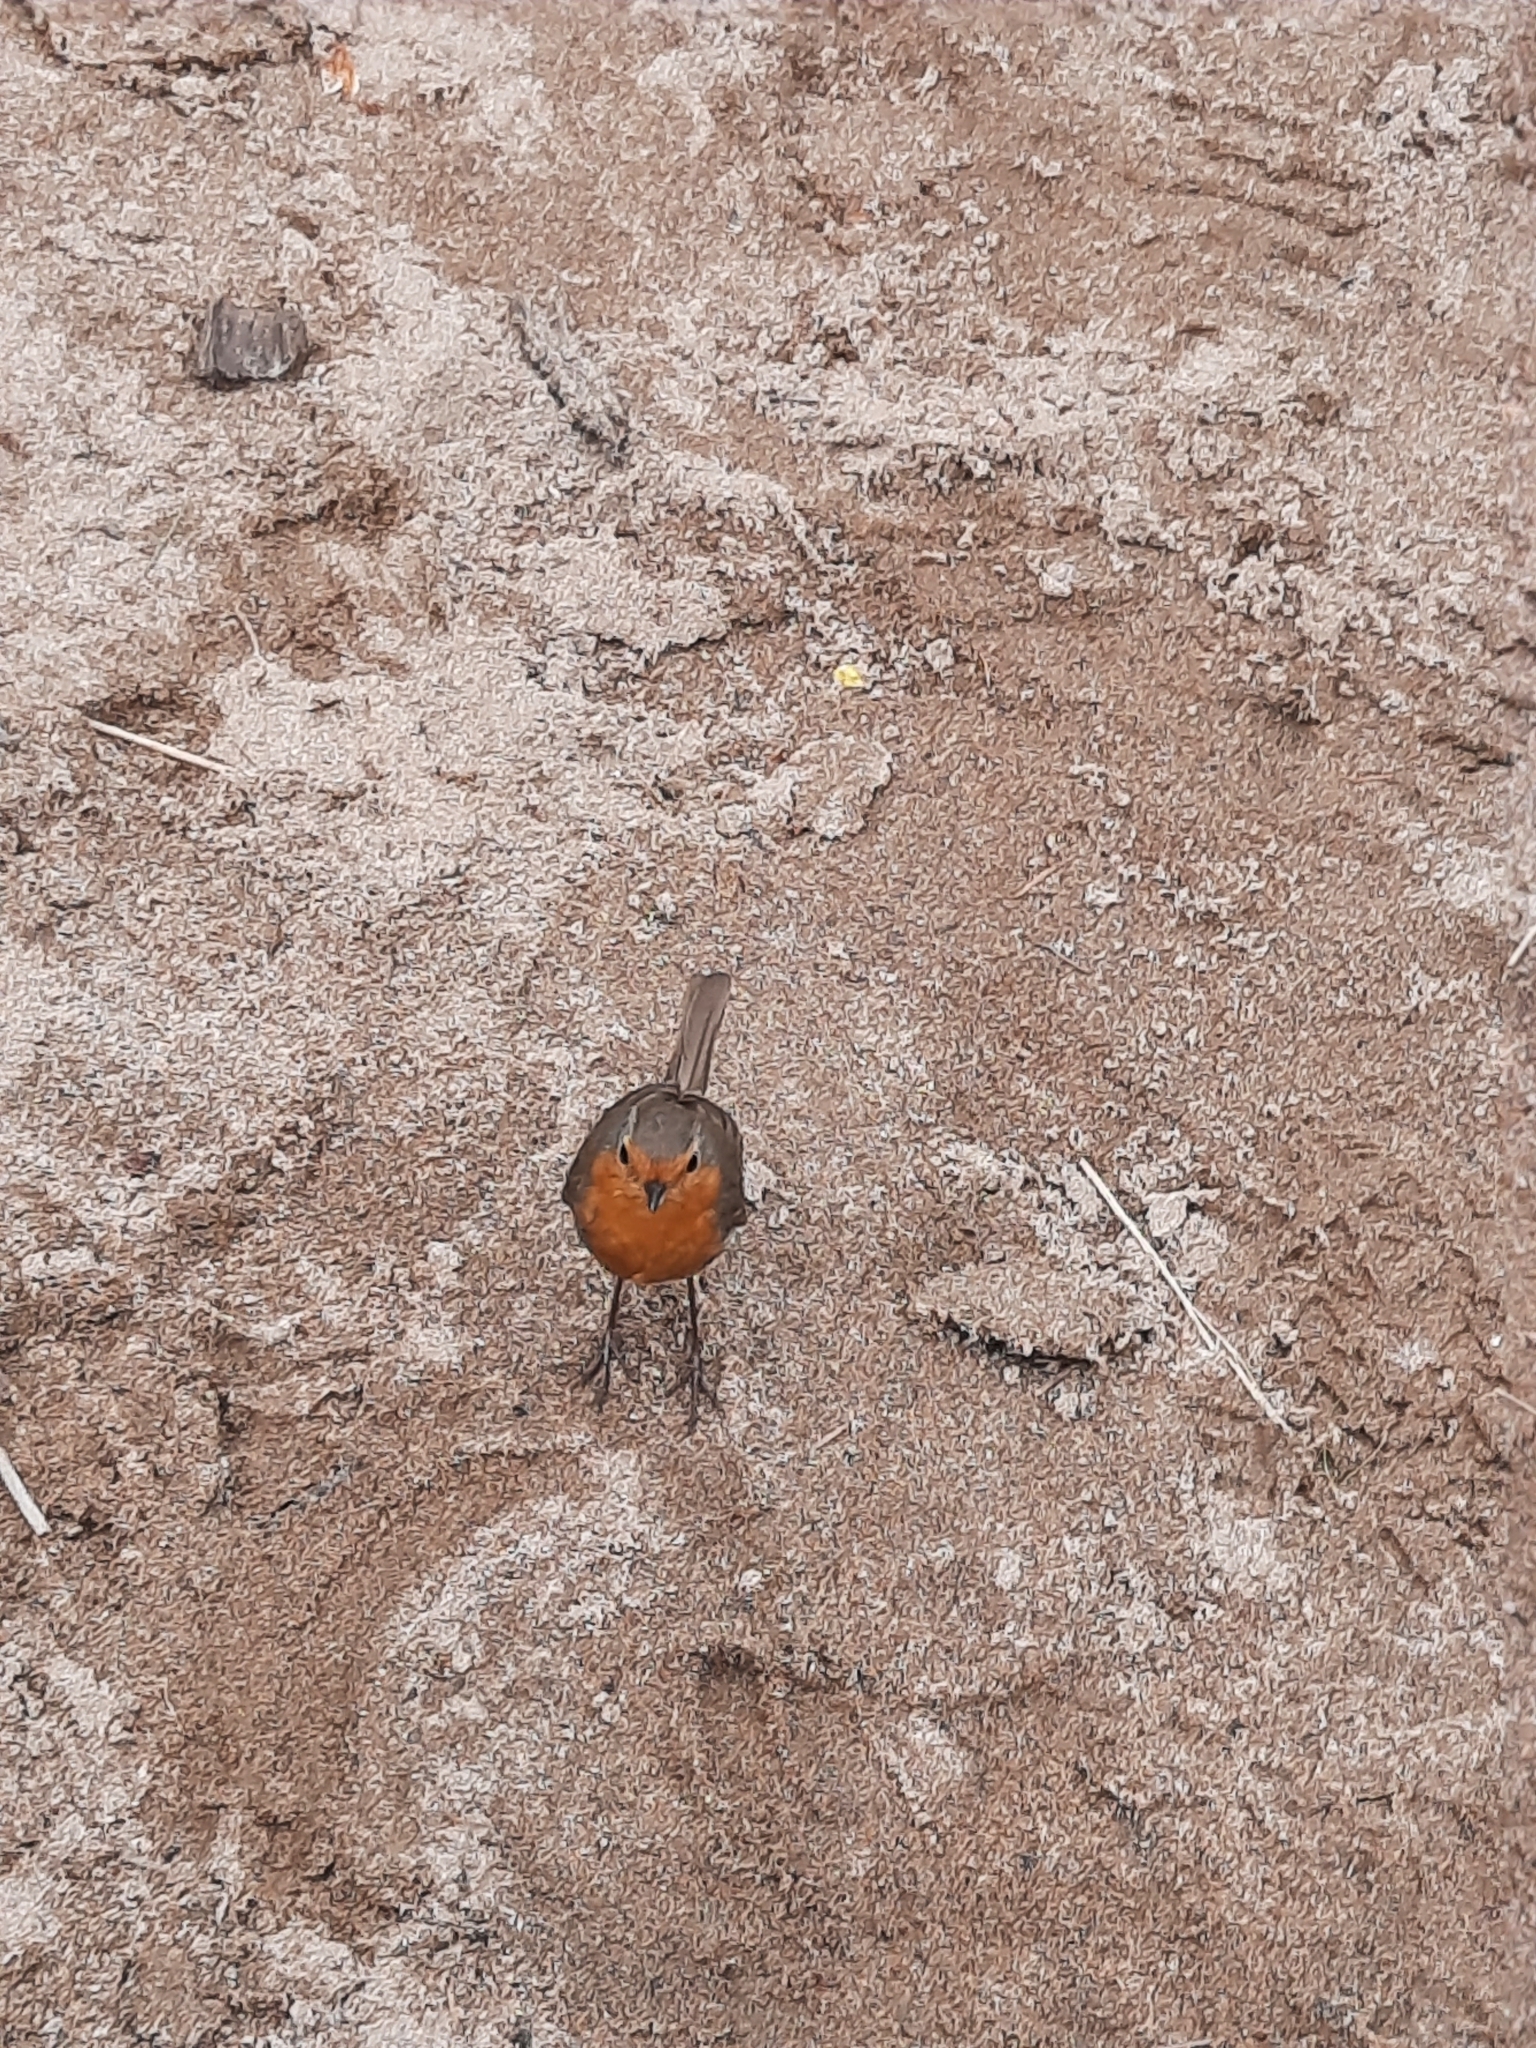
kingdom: Animalia
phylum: Chordata
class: Aves
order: Passeriformes
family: Muscicapidae
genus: Erithacus
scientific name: Erithacus rubecula
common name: European robin
